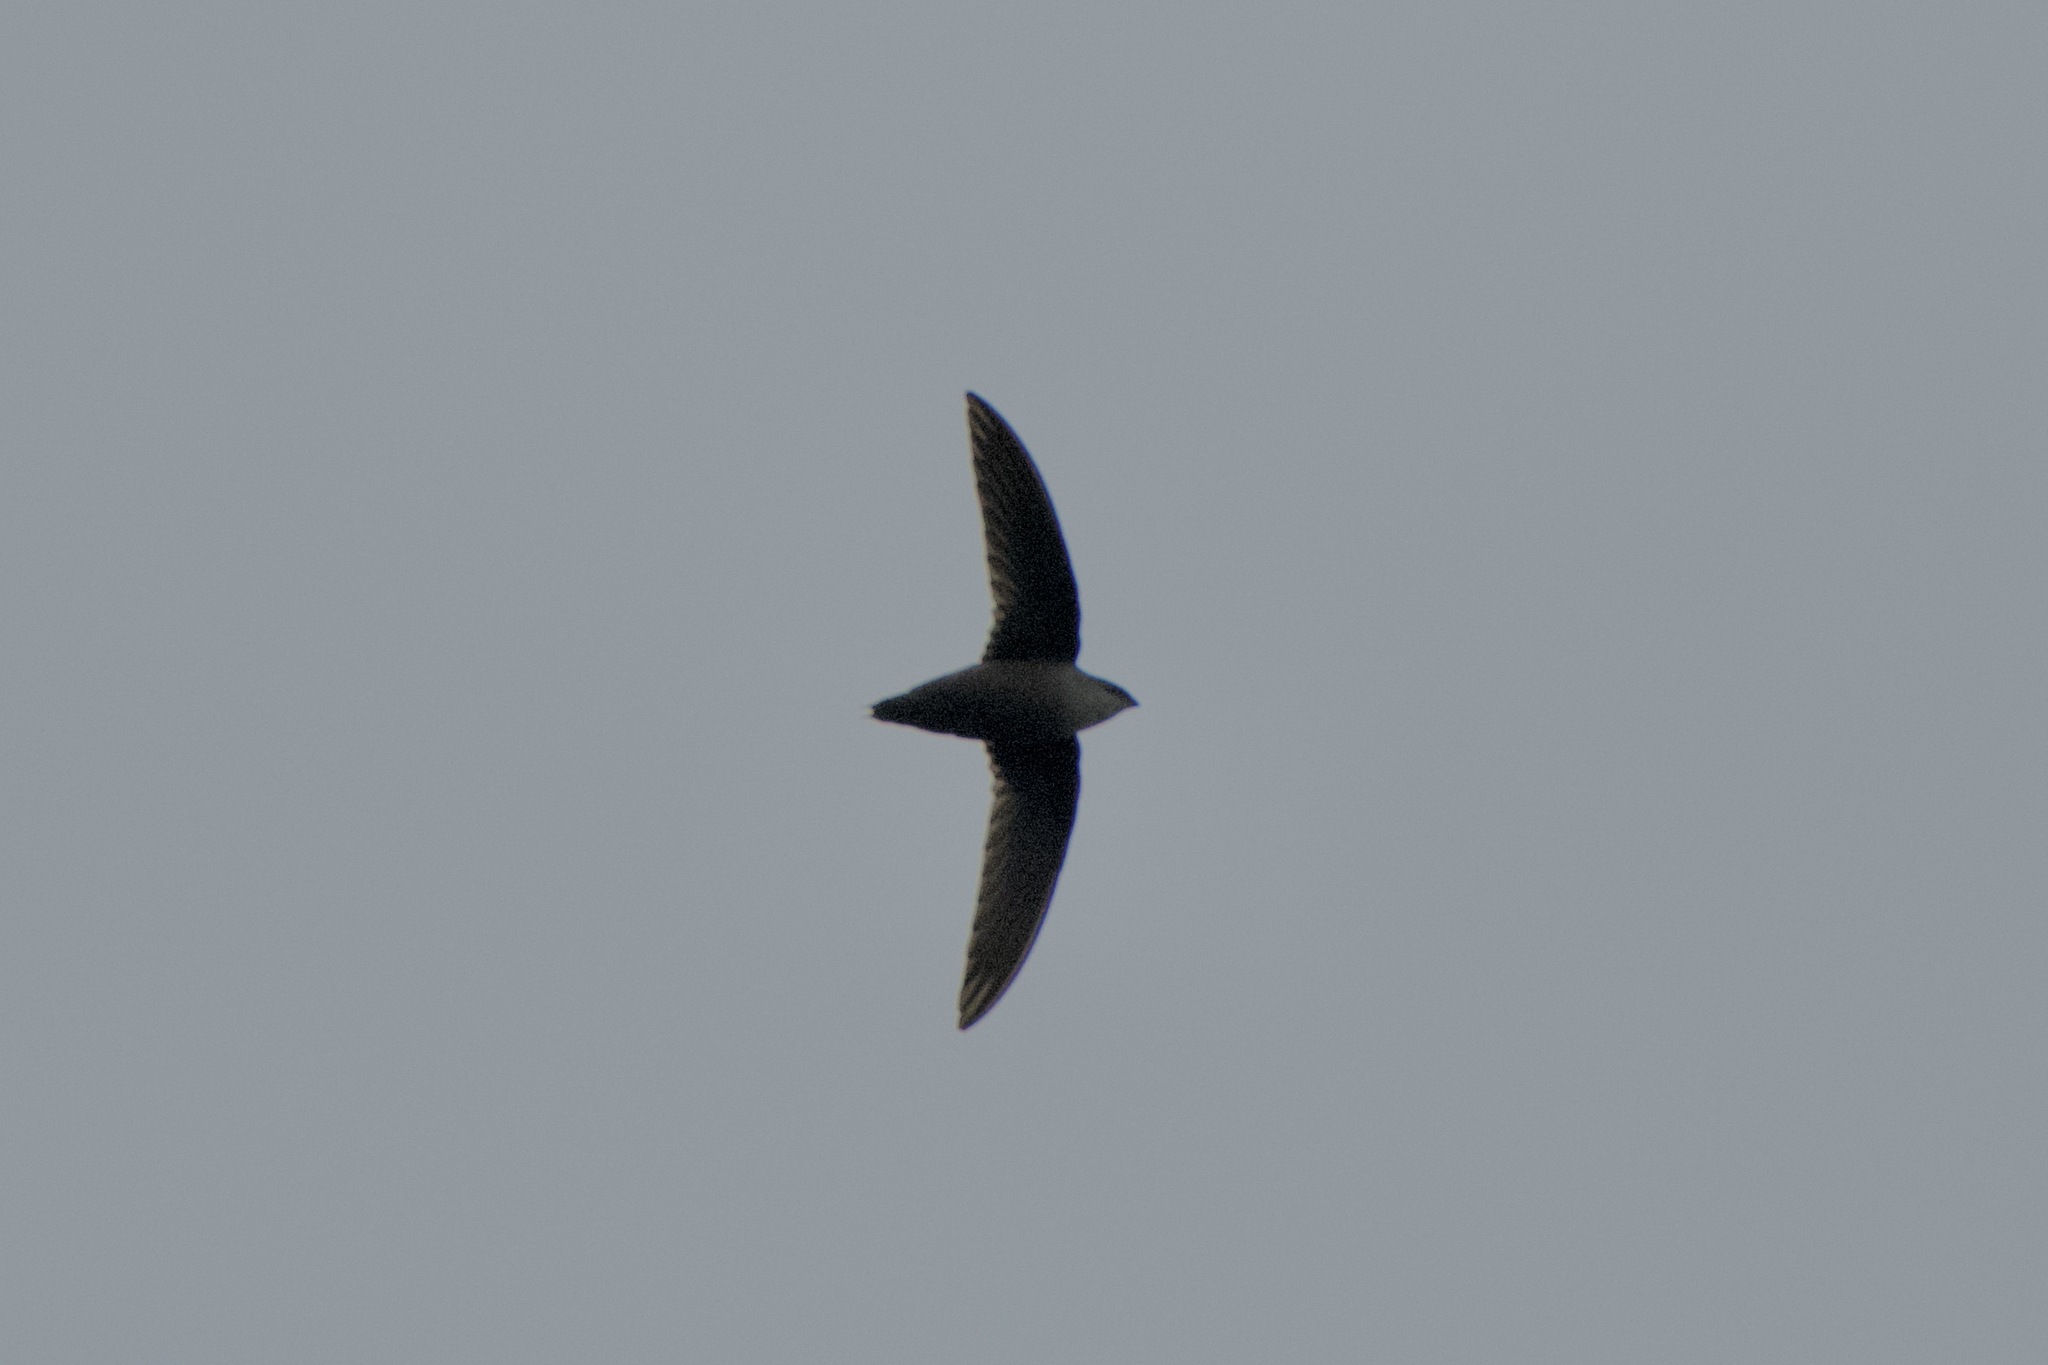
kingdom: Animalia
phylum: Chordata
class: Aves
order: Apodiformes
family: Apodidae
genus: Chaetura
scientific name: Chaetura pelagica
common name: Chimney swift
